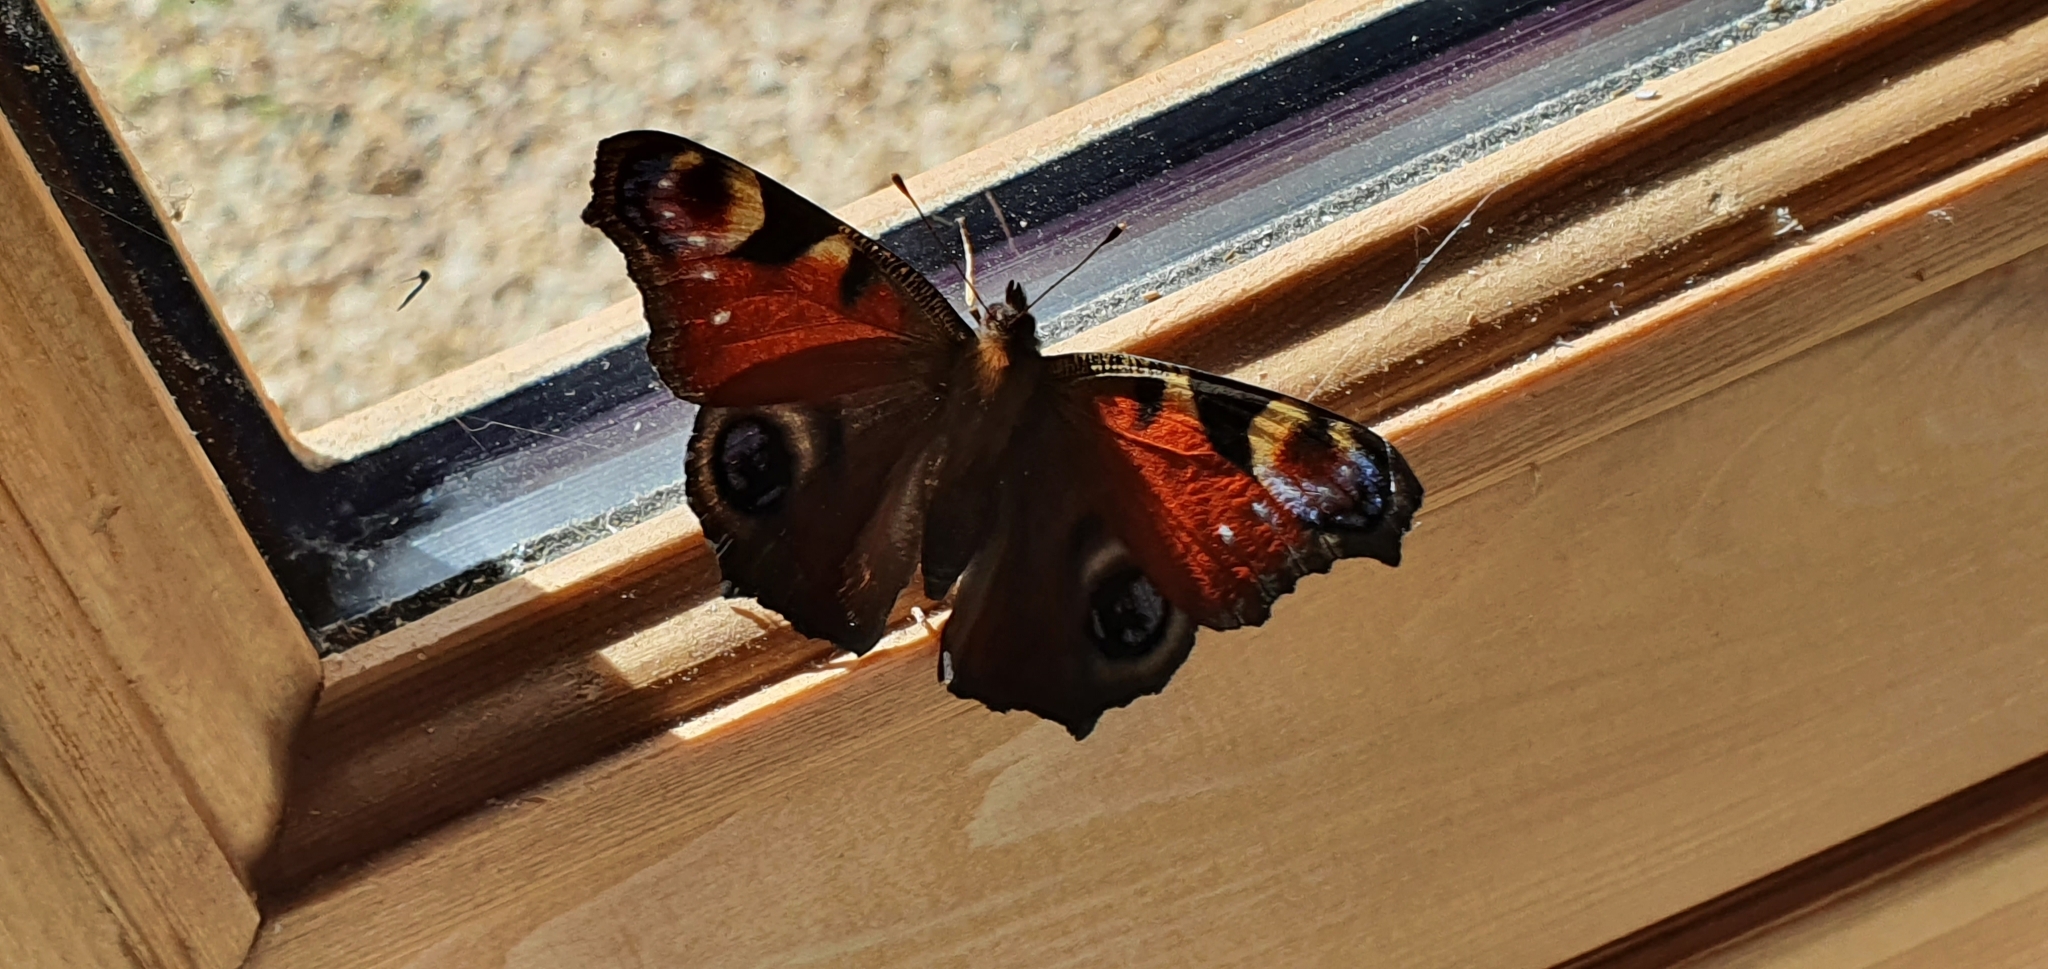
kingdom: Animalia
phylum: Arthropoda
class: Insecta
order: Lepidoptera
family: Nymphalidae
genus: Aglais
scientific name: Aglais io
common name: Peacock
